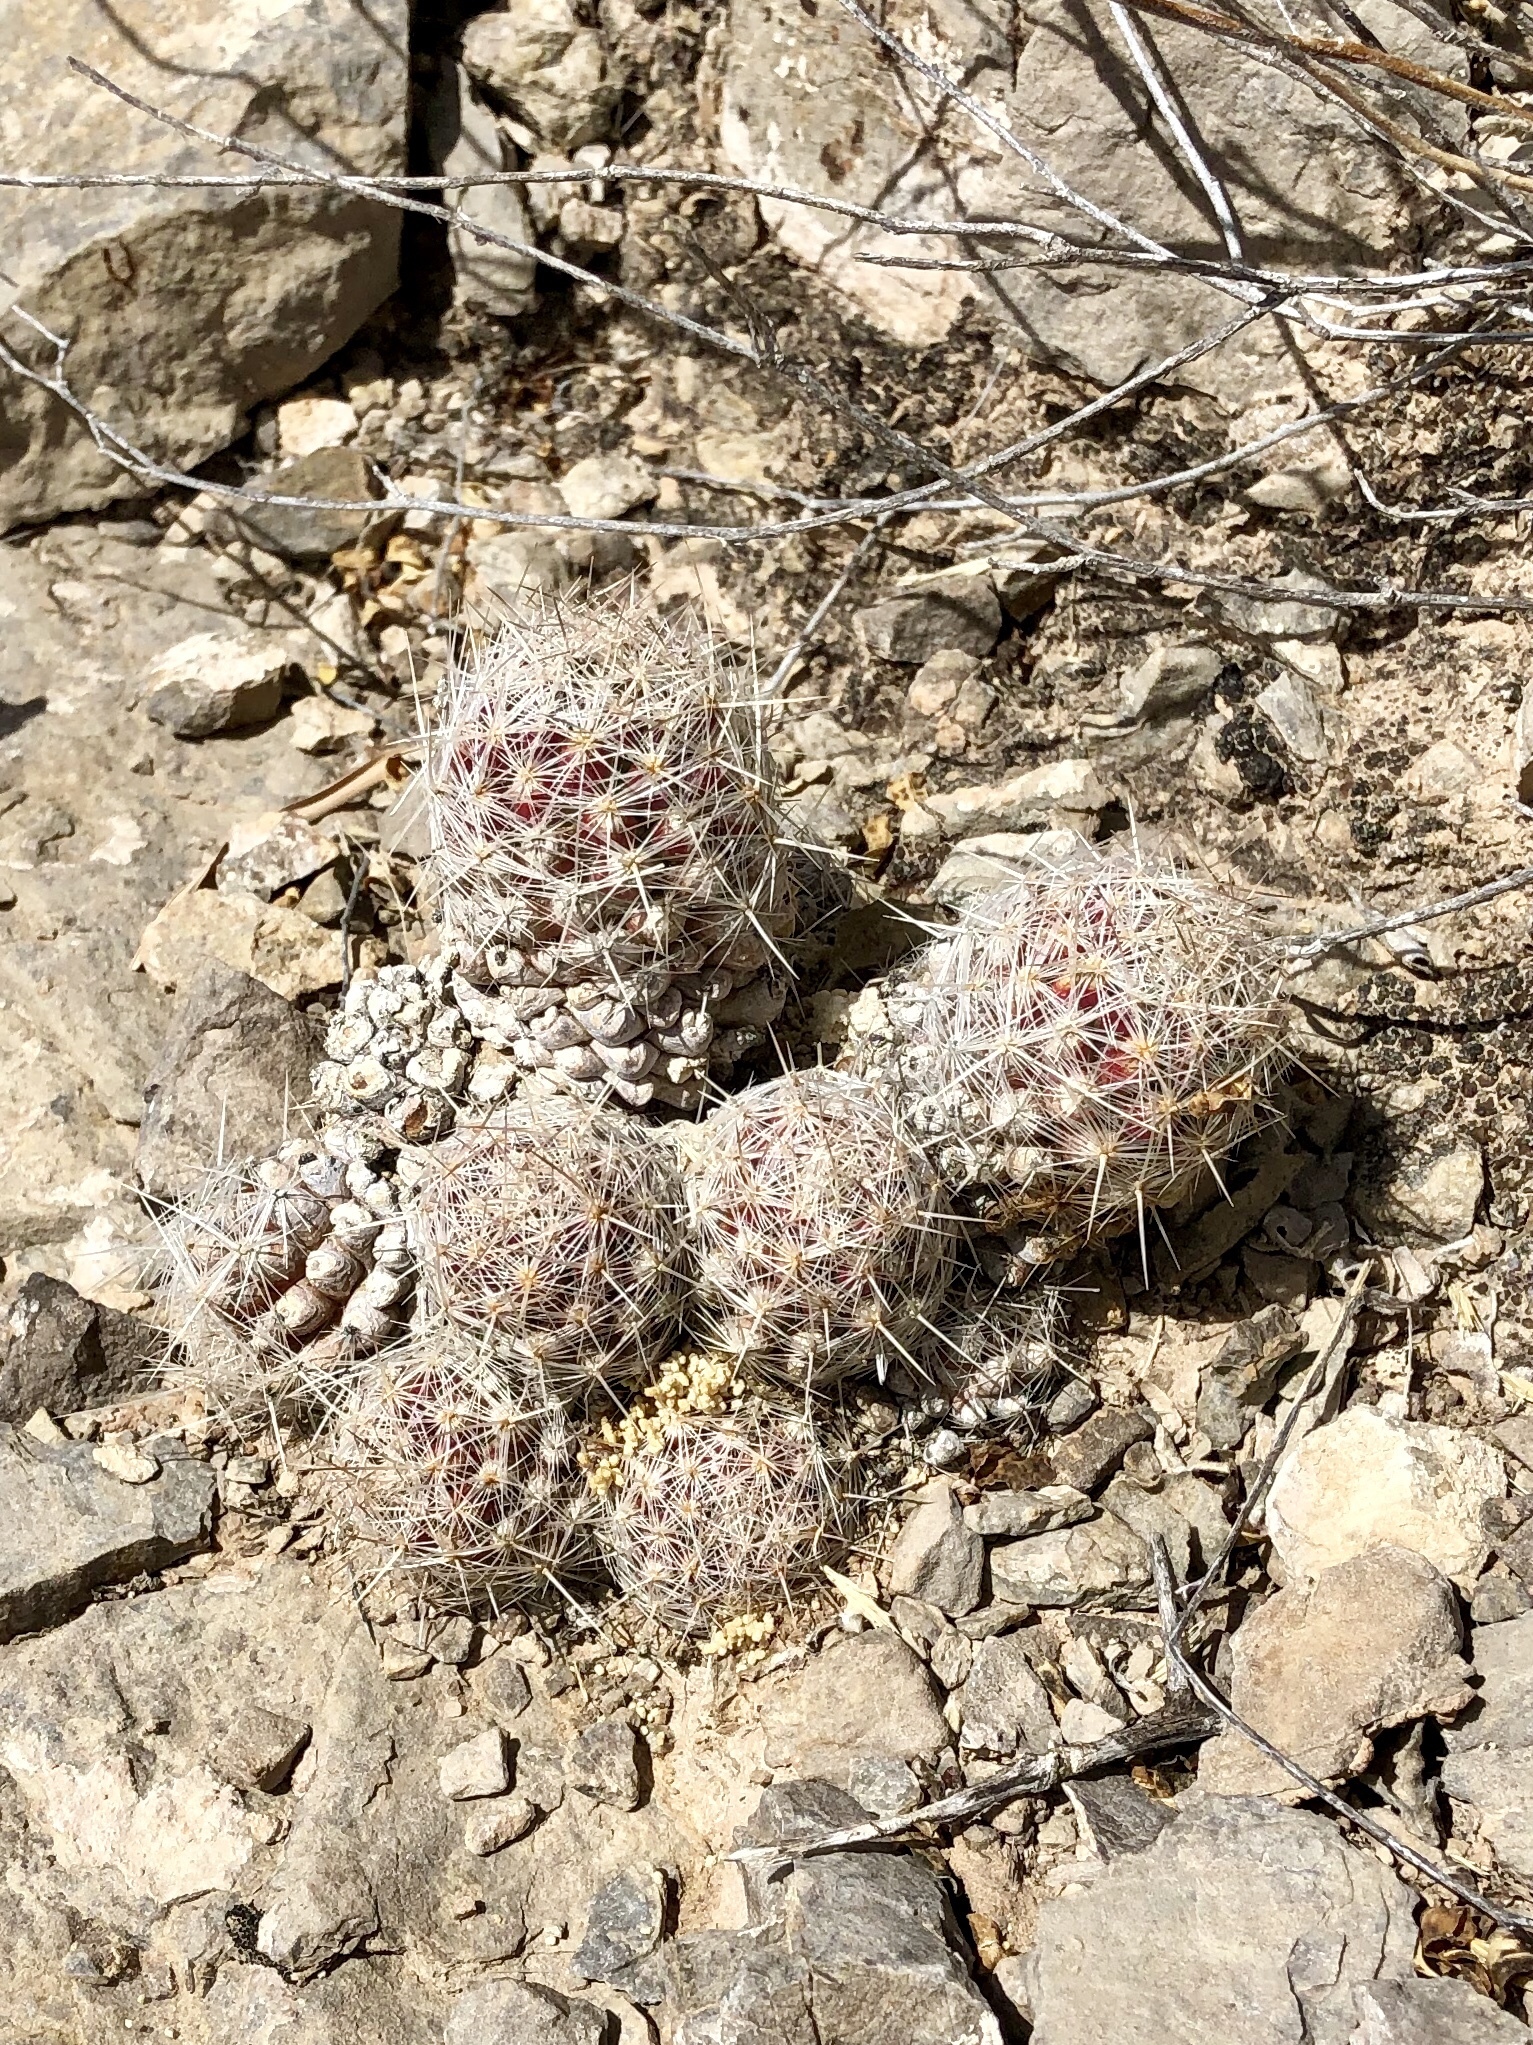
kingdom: Plantae
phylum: Tracheophyta
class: Magnoliopsida
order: Caryophyllales
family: Cactaceae
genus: Pelecyphora
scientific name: Pelecyphora tuberculosa
